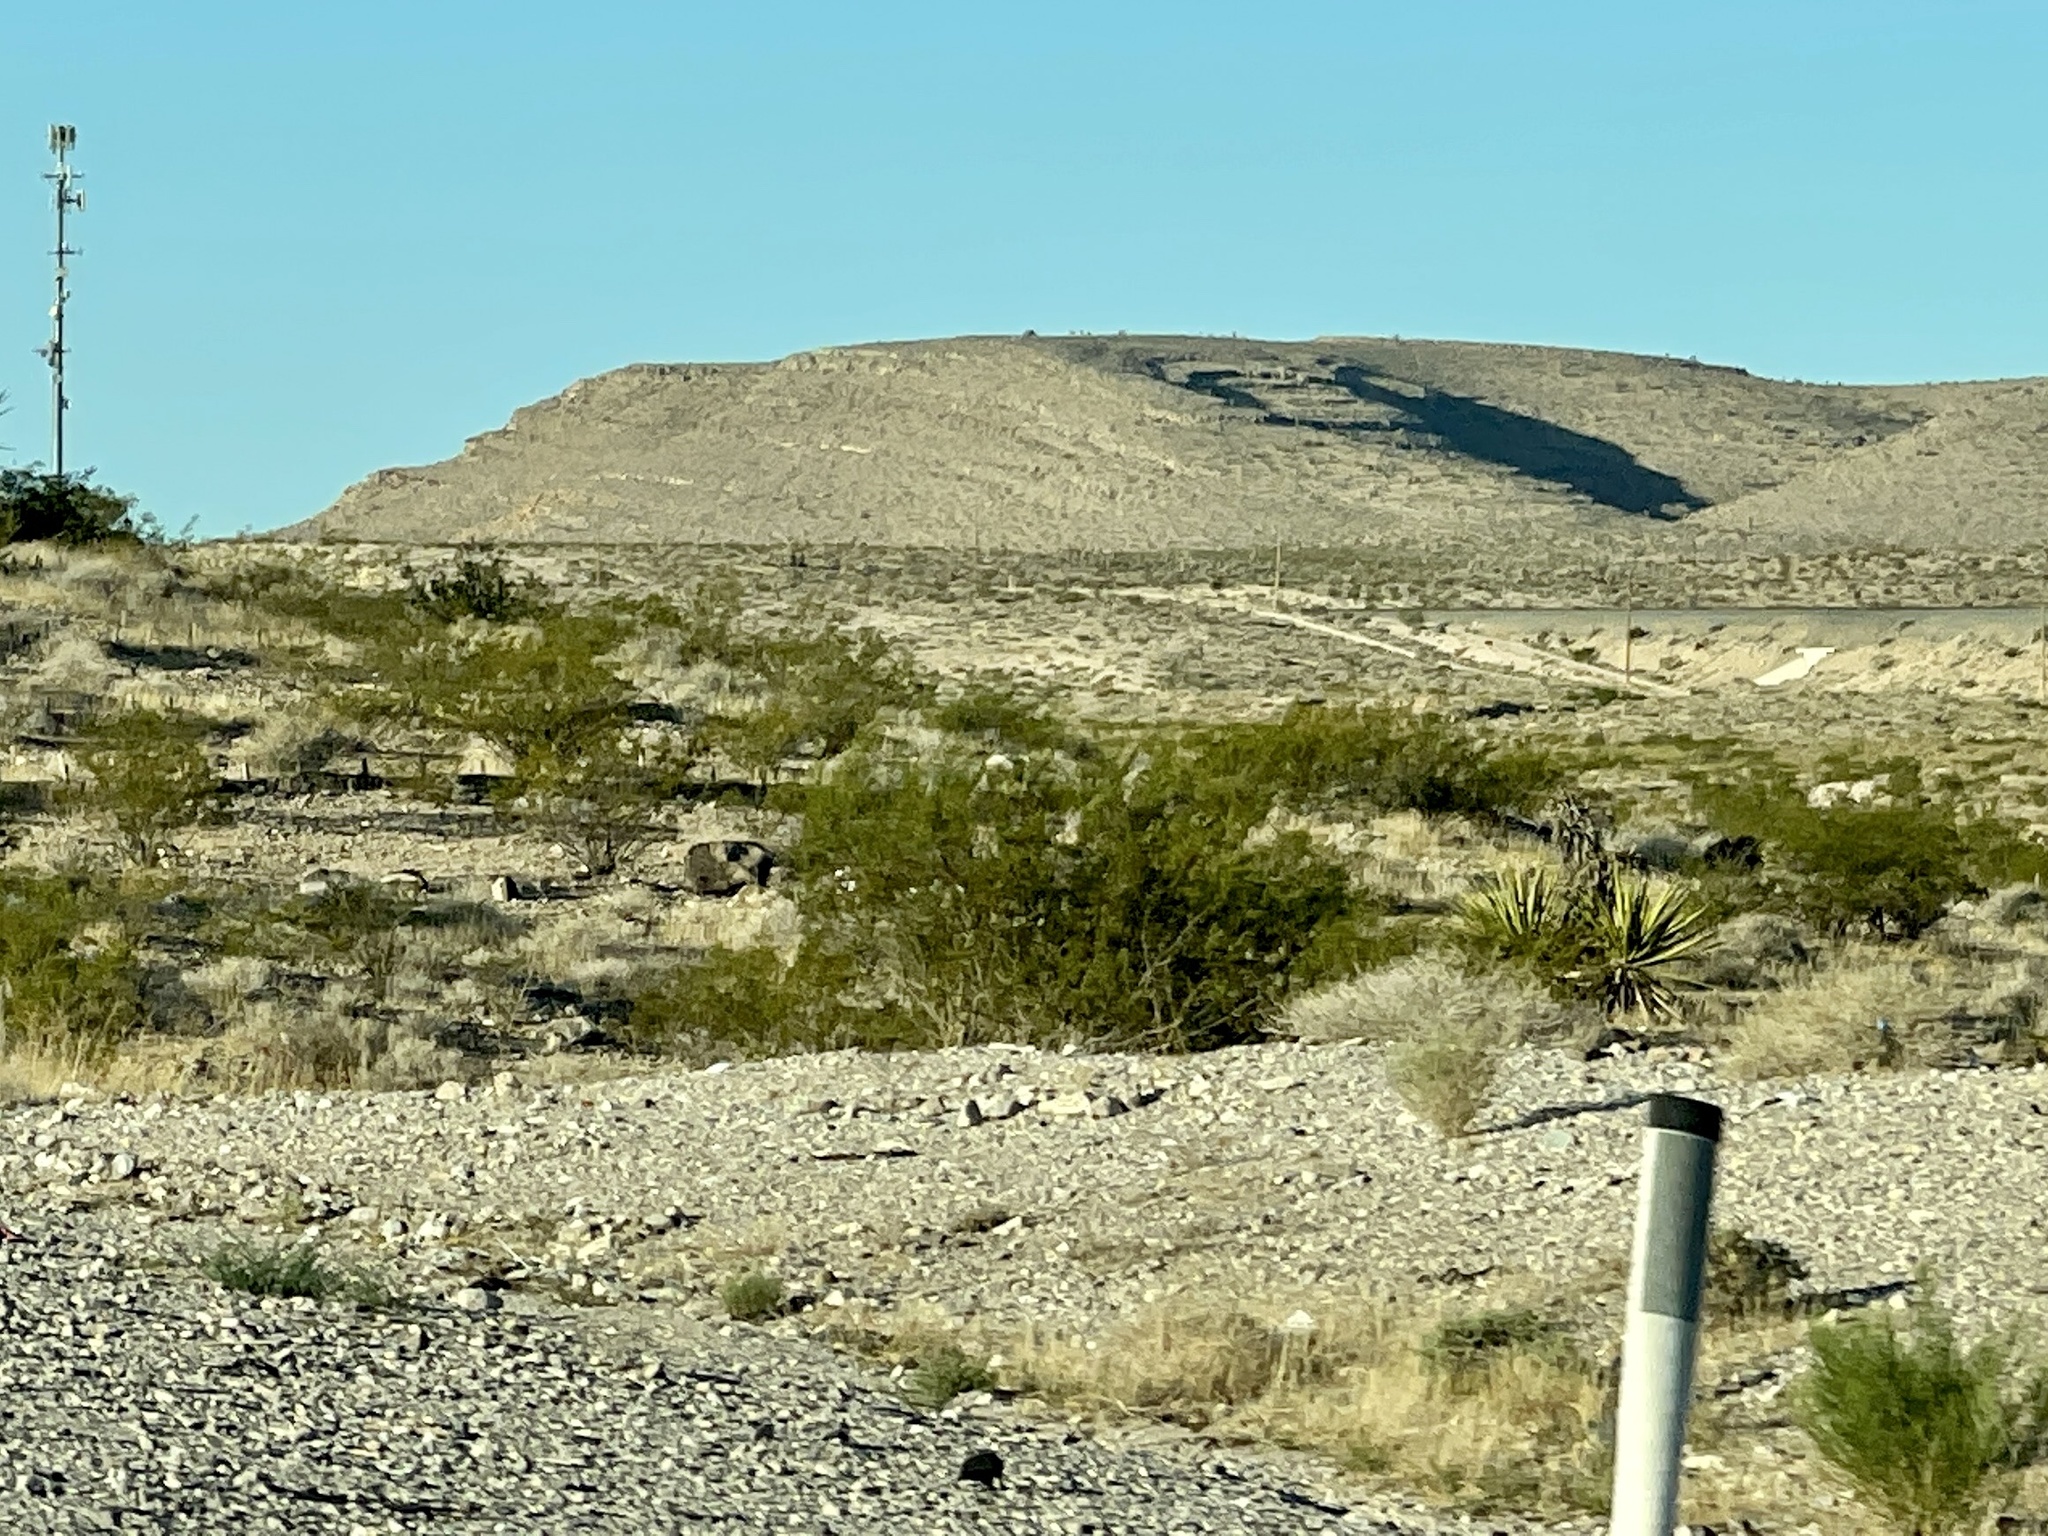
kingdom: Plantae
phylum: Tracheophyta
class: Magnoliopsida
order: Zygophyllales
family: Zygophyllaceae
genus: Larrea
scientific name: Larrea tridentata
